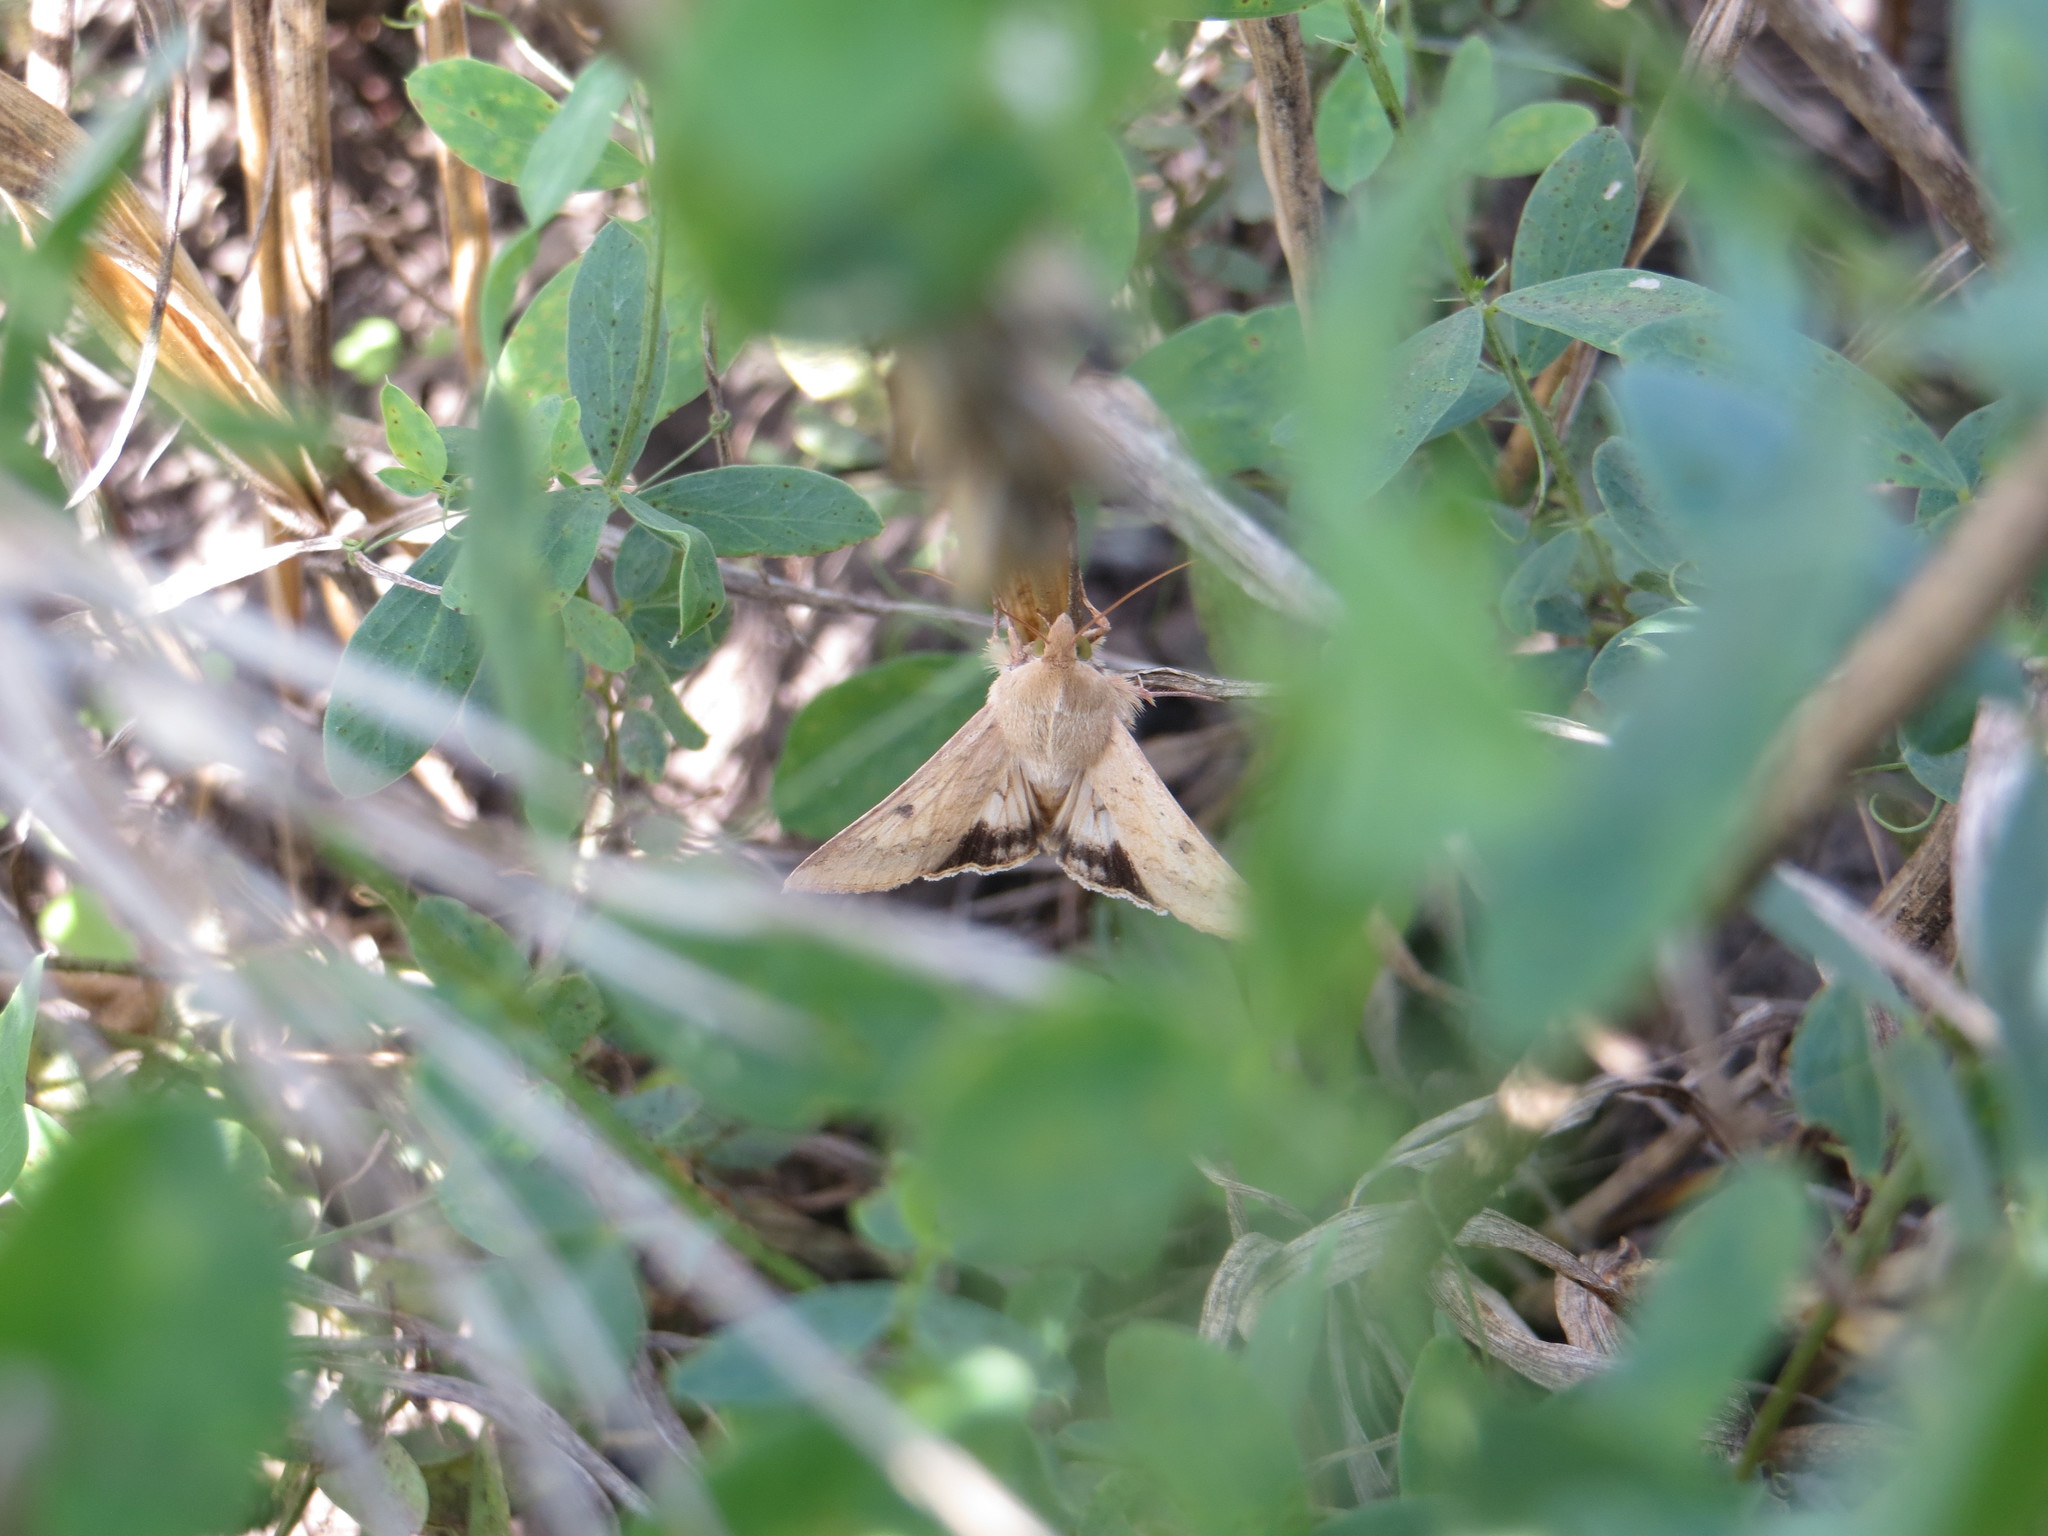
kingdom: Animalia
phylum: Arthropoda
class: Insecta
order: Lepidoptera
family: Noctuidae
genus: Helicoverpa
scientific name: Helicoverpa armigera
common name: Cotton bollworm
